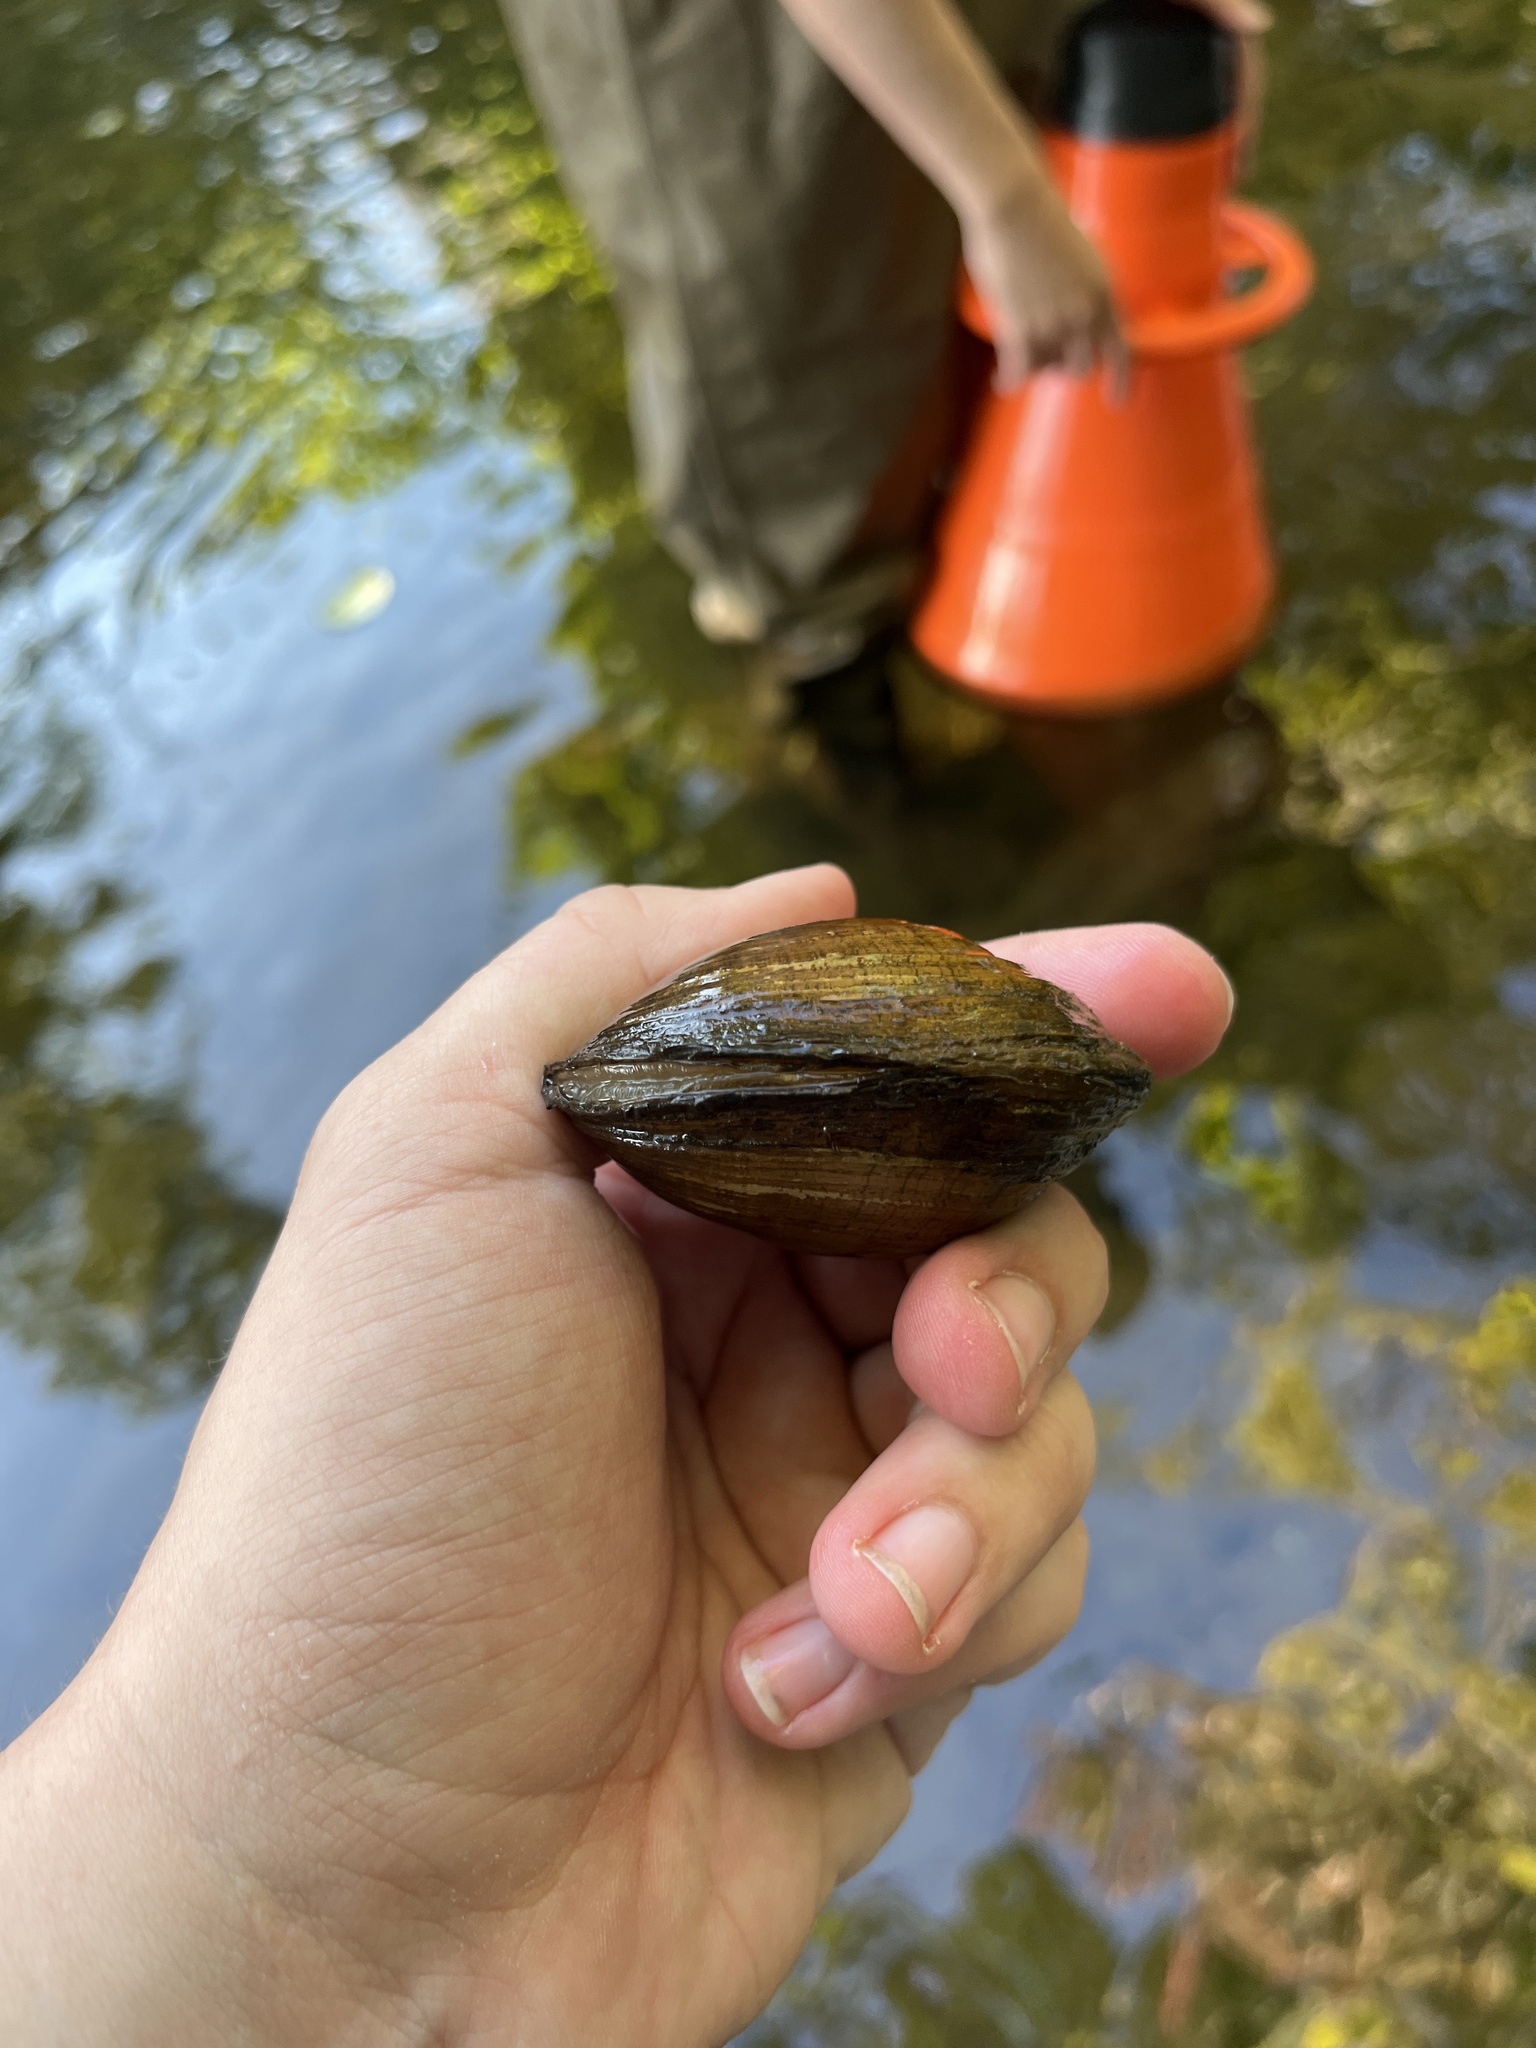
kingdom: Animalia
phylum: Mollusca
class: Bivalvia
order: Unionida
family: Unionidae
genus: Lampsilis
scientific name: Lampsilis cardium
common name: Plain pocketbook
